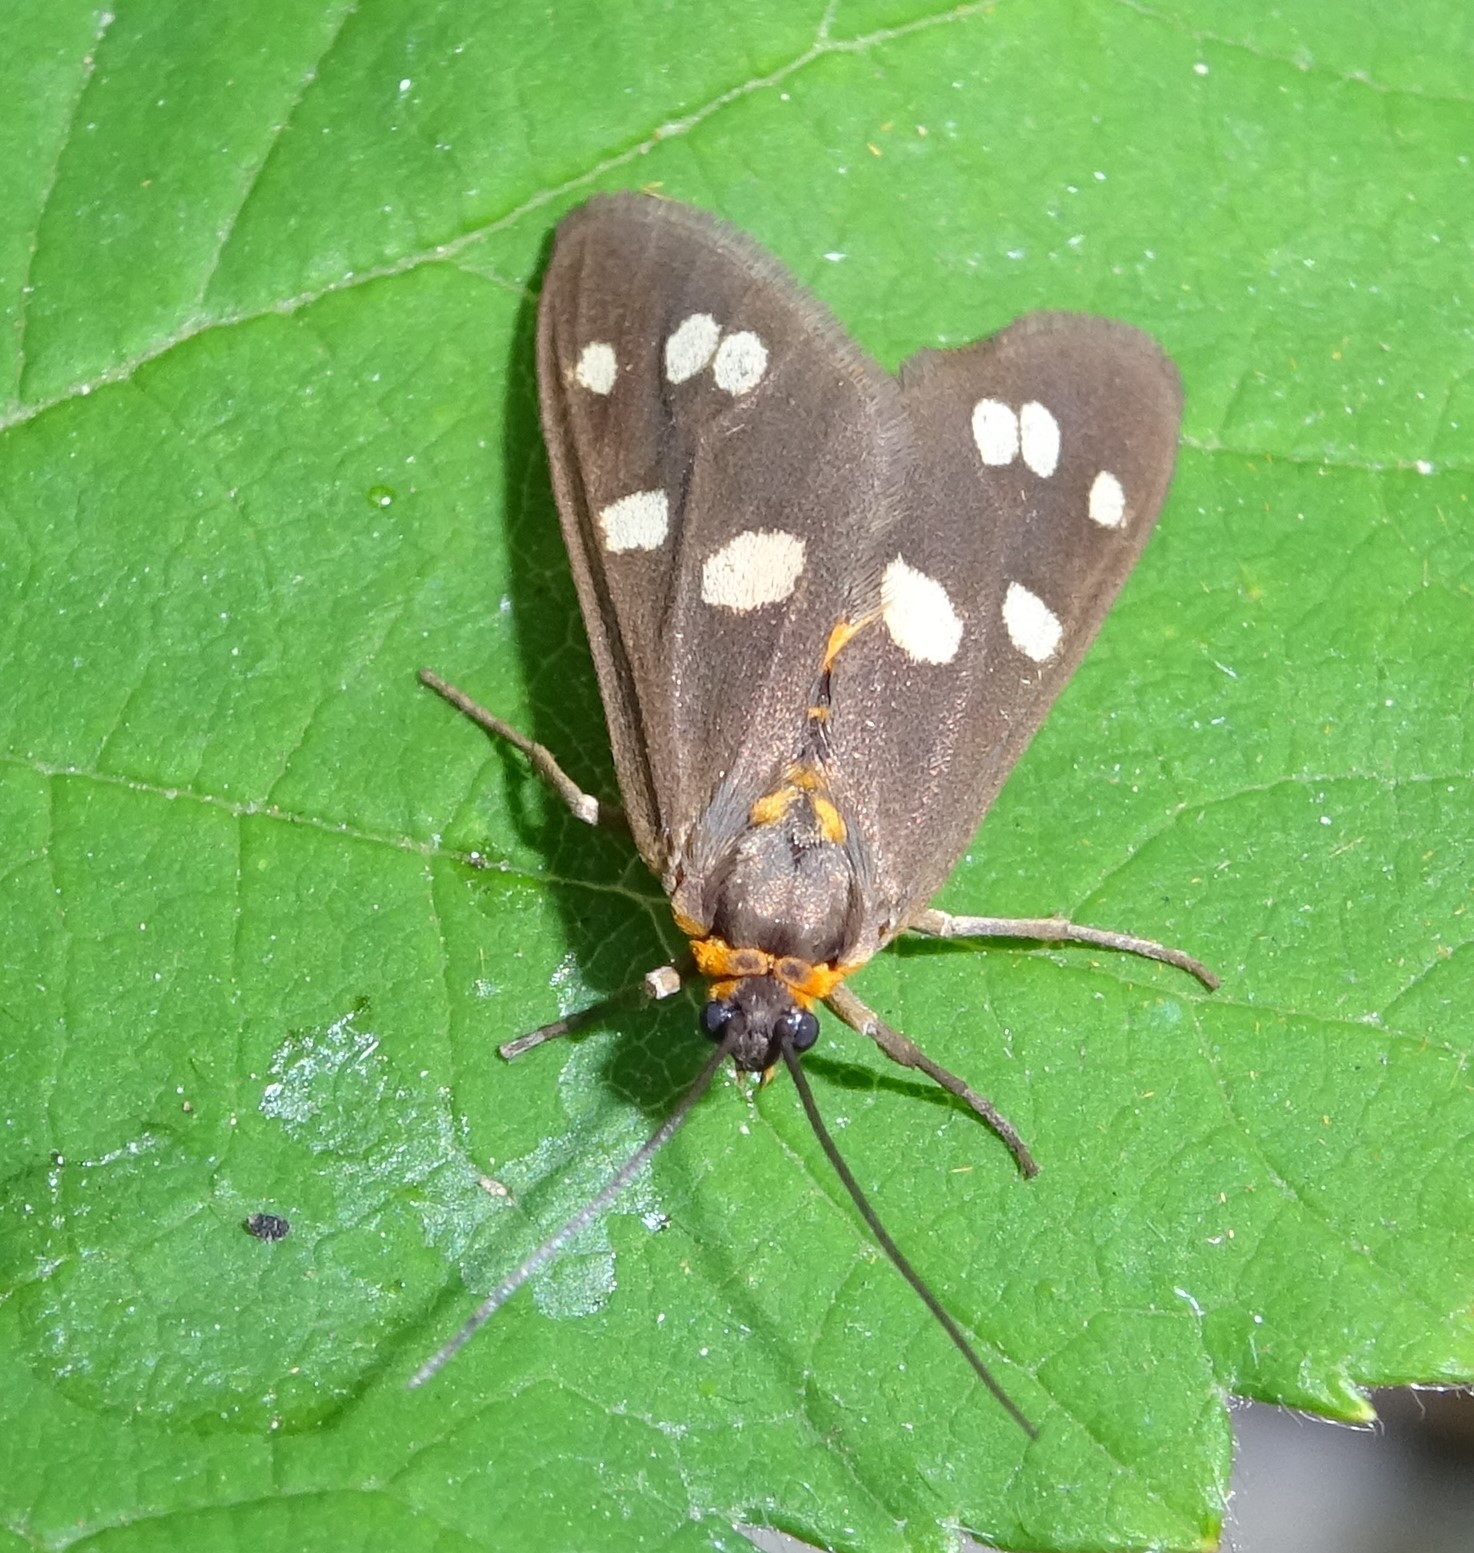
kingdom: Animalia
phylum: Arthropoda
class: Insecta
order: Lepidoptera
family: Erebidae
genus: Dysauxes
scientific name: Dysauxes punctata
